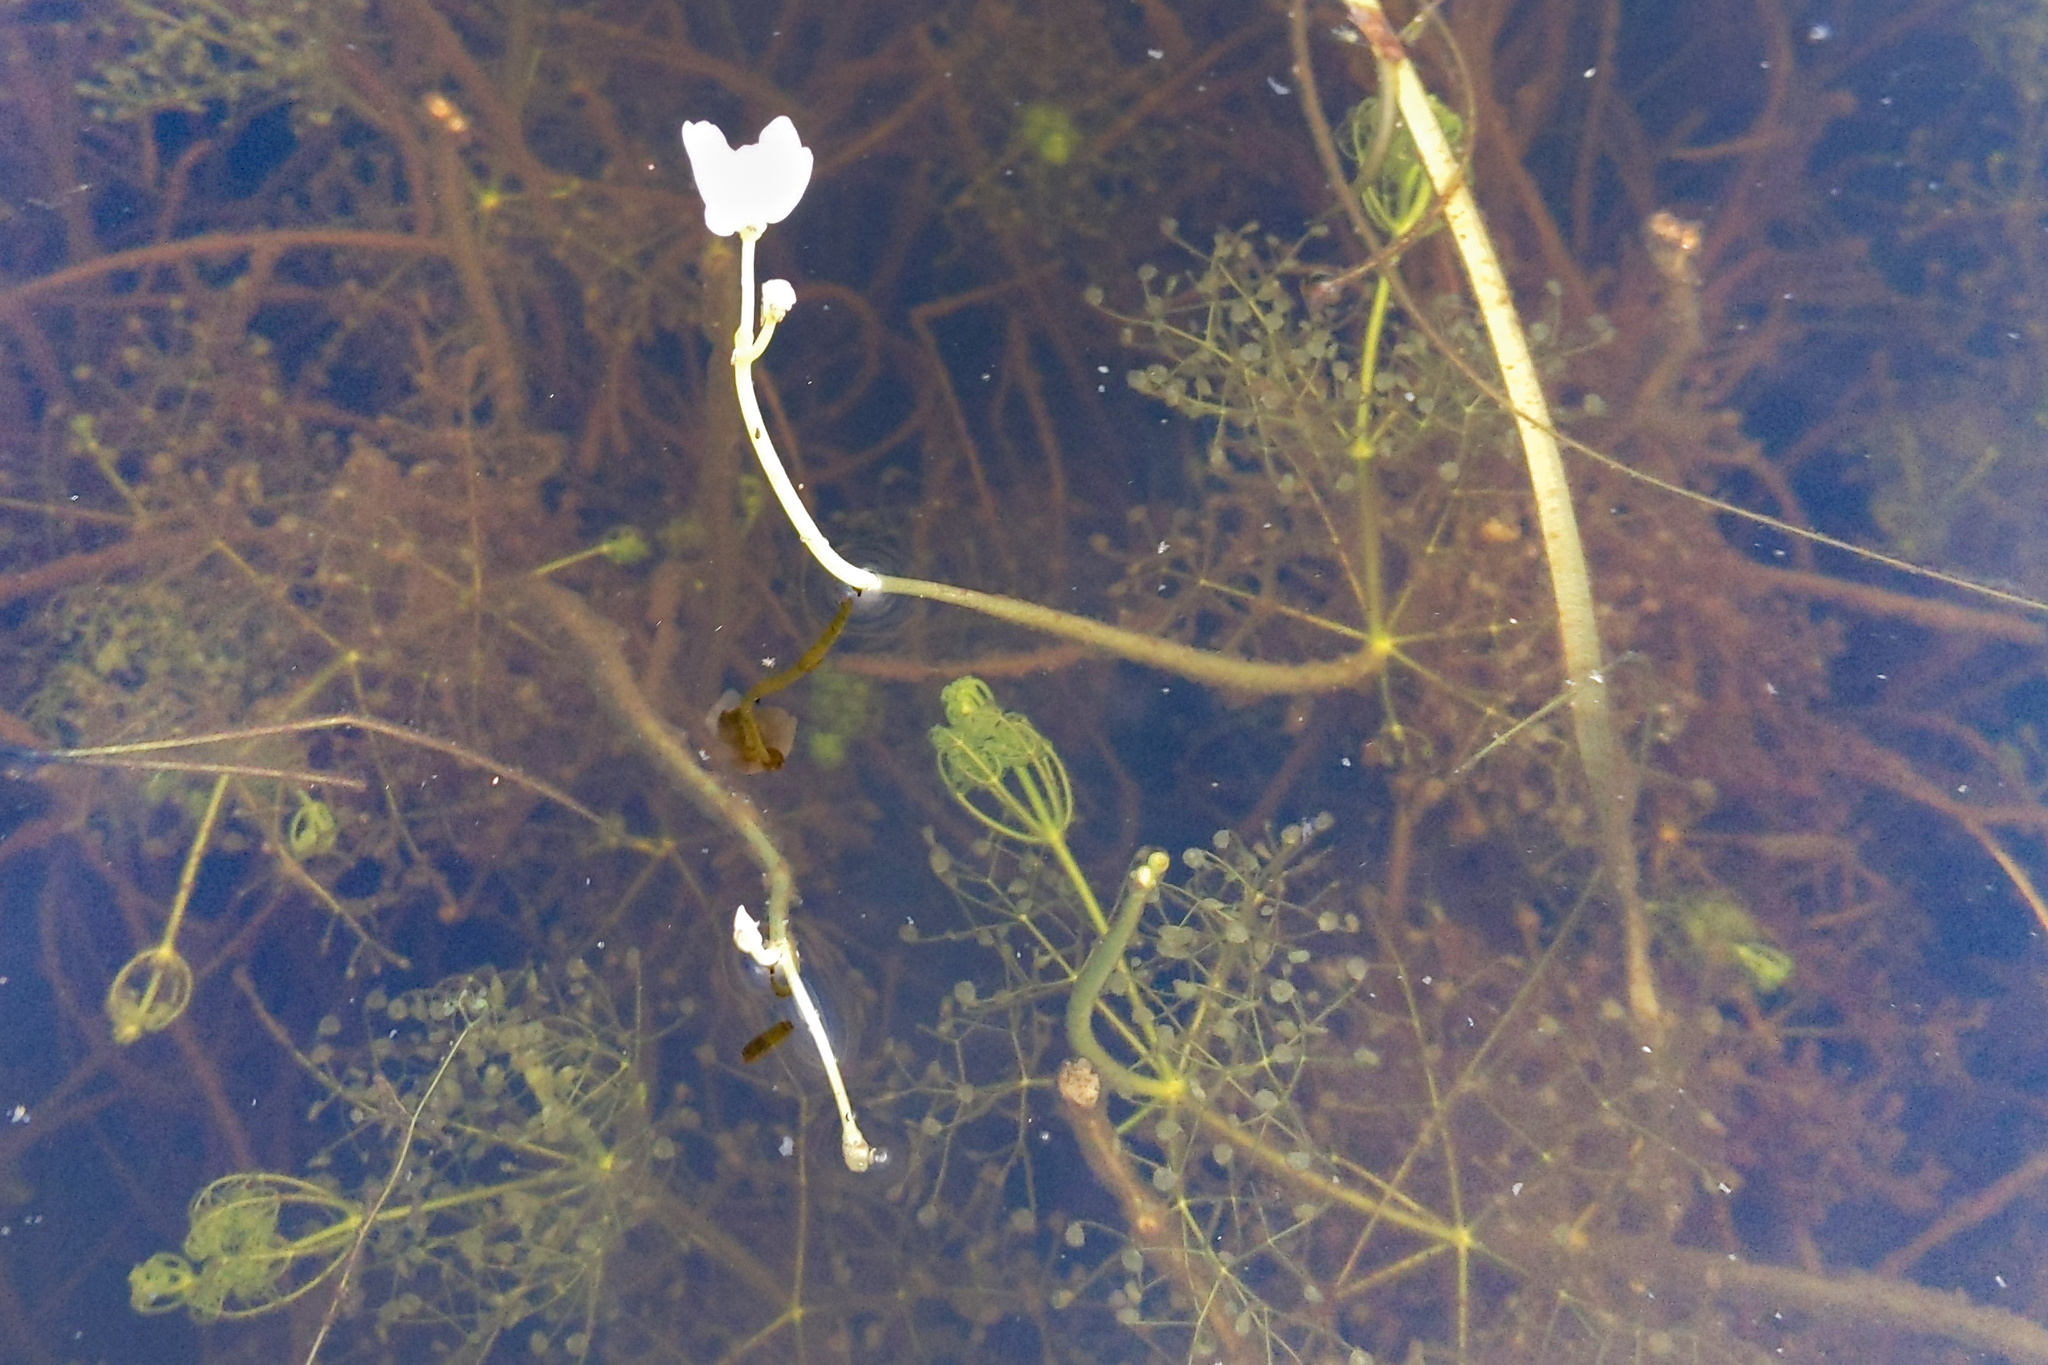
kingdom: Plantae
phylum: Tracheophyta
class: Magnoliopsida
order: Lamiales
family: Lentibulariaceae
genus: Utricularia
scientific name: Utricularia purpurea
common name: Eastern purple bladderwort
